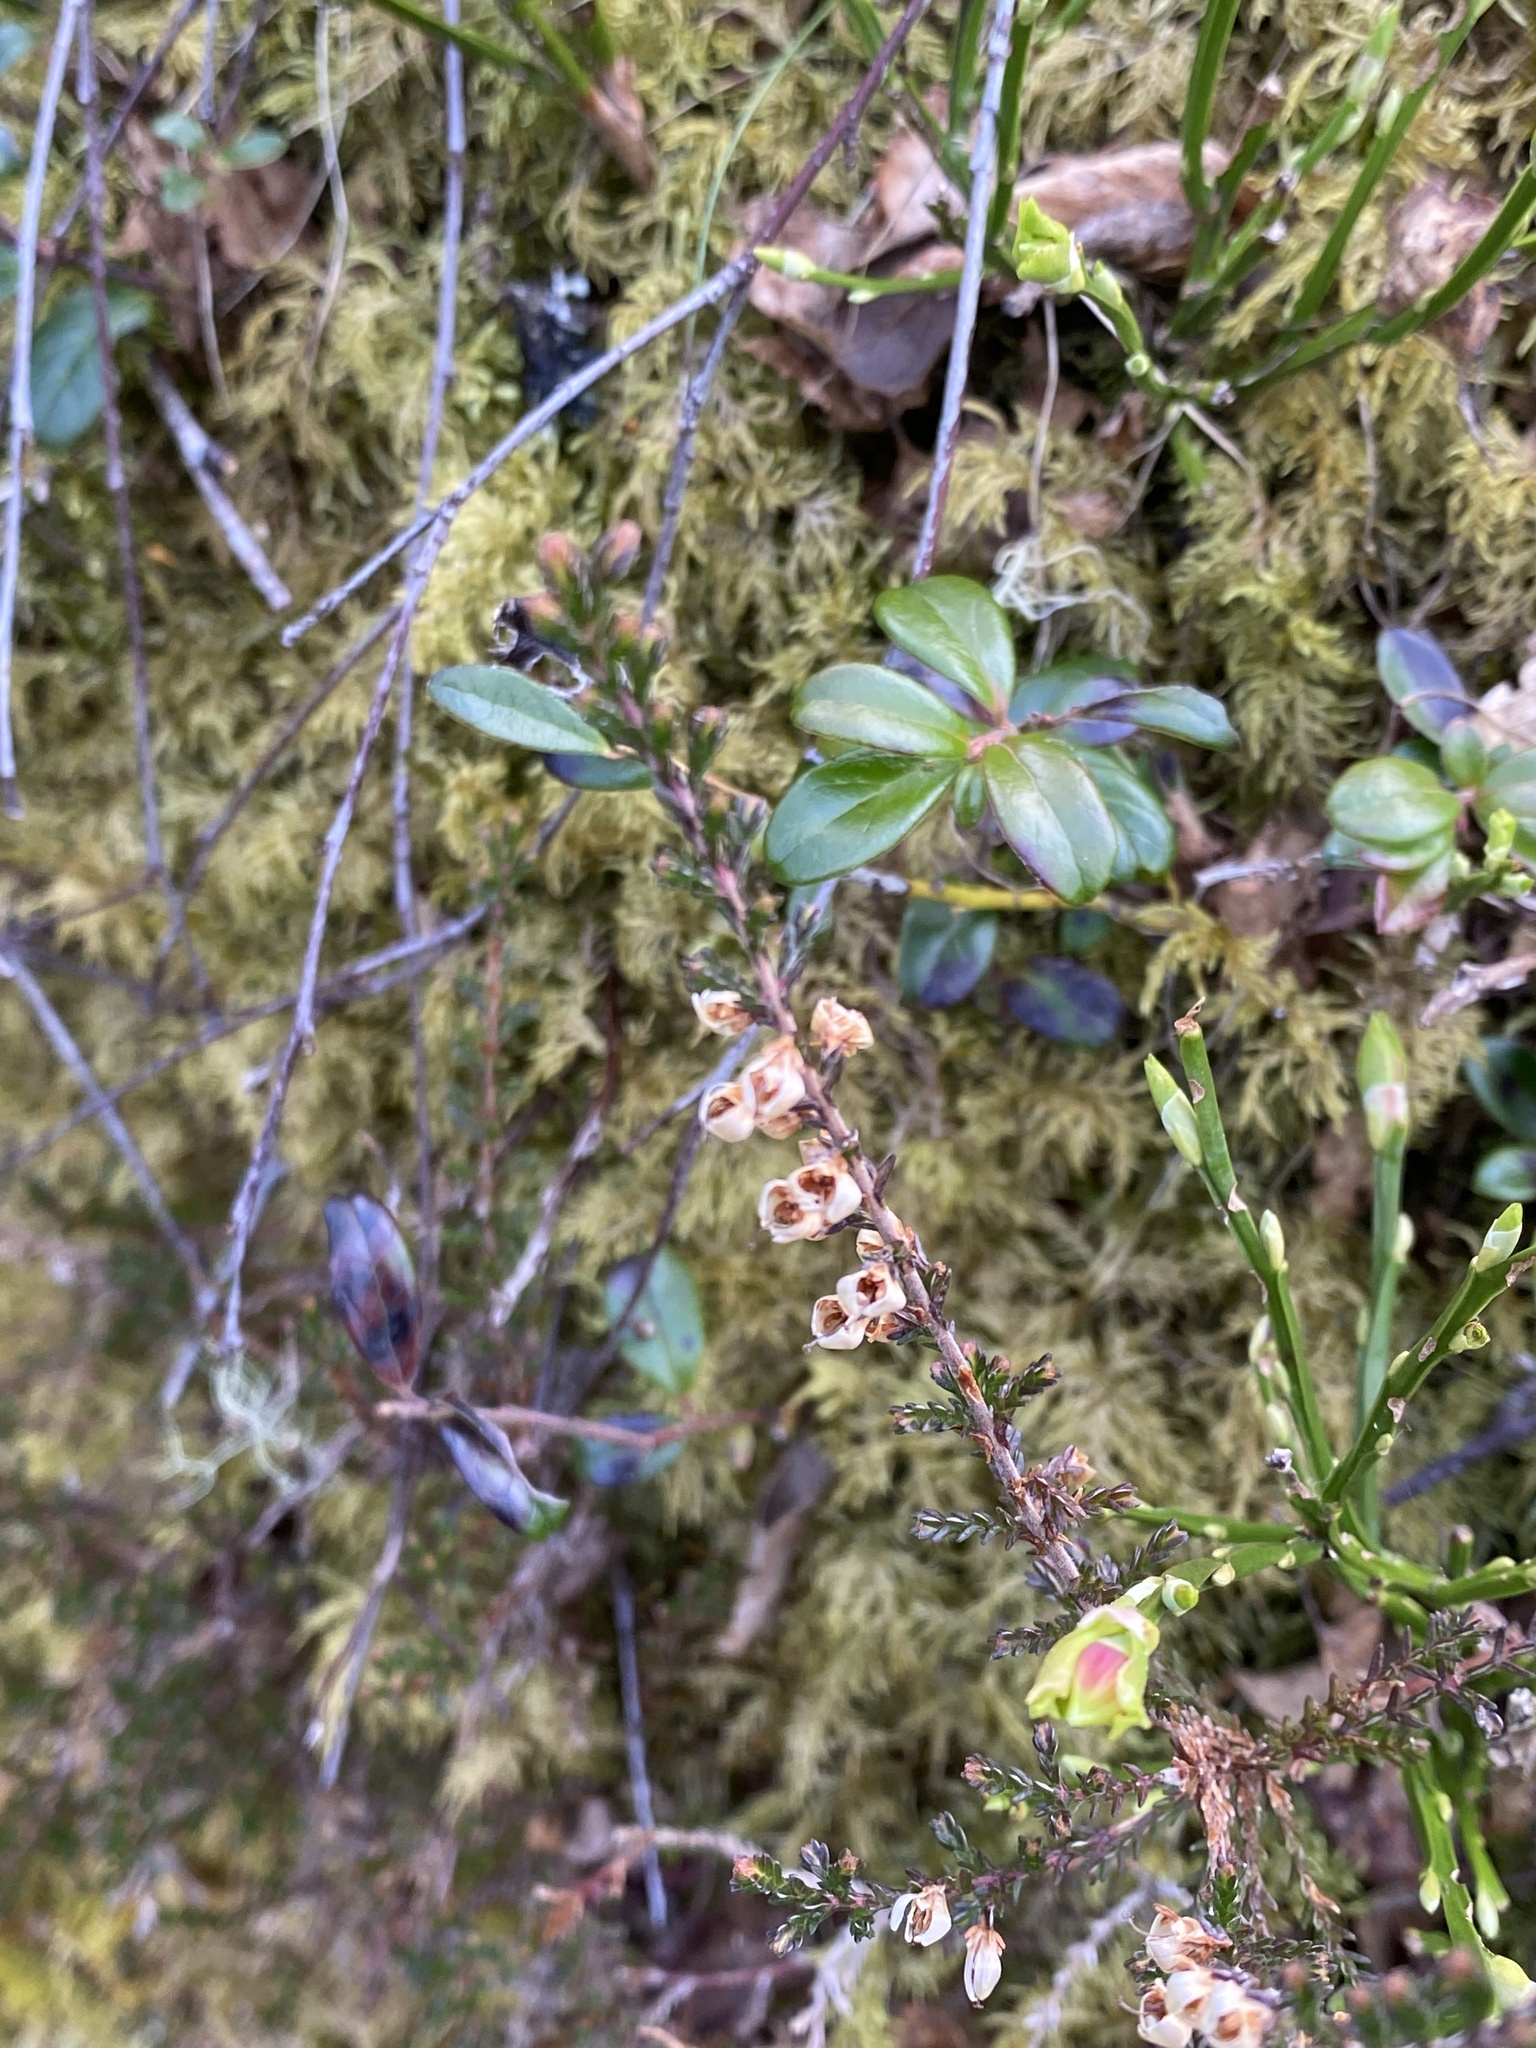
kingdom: Plantae
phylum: Tracheophyta
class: Magnoliopsida
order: Ericales
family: Ericaceae
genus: Calluna
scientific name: Calluna vulgaris
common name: Heather
